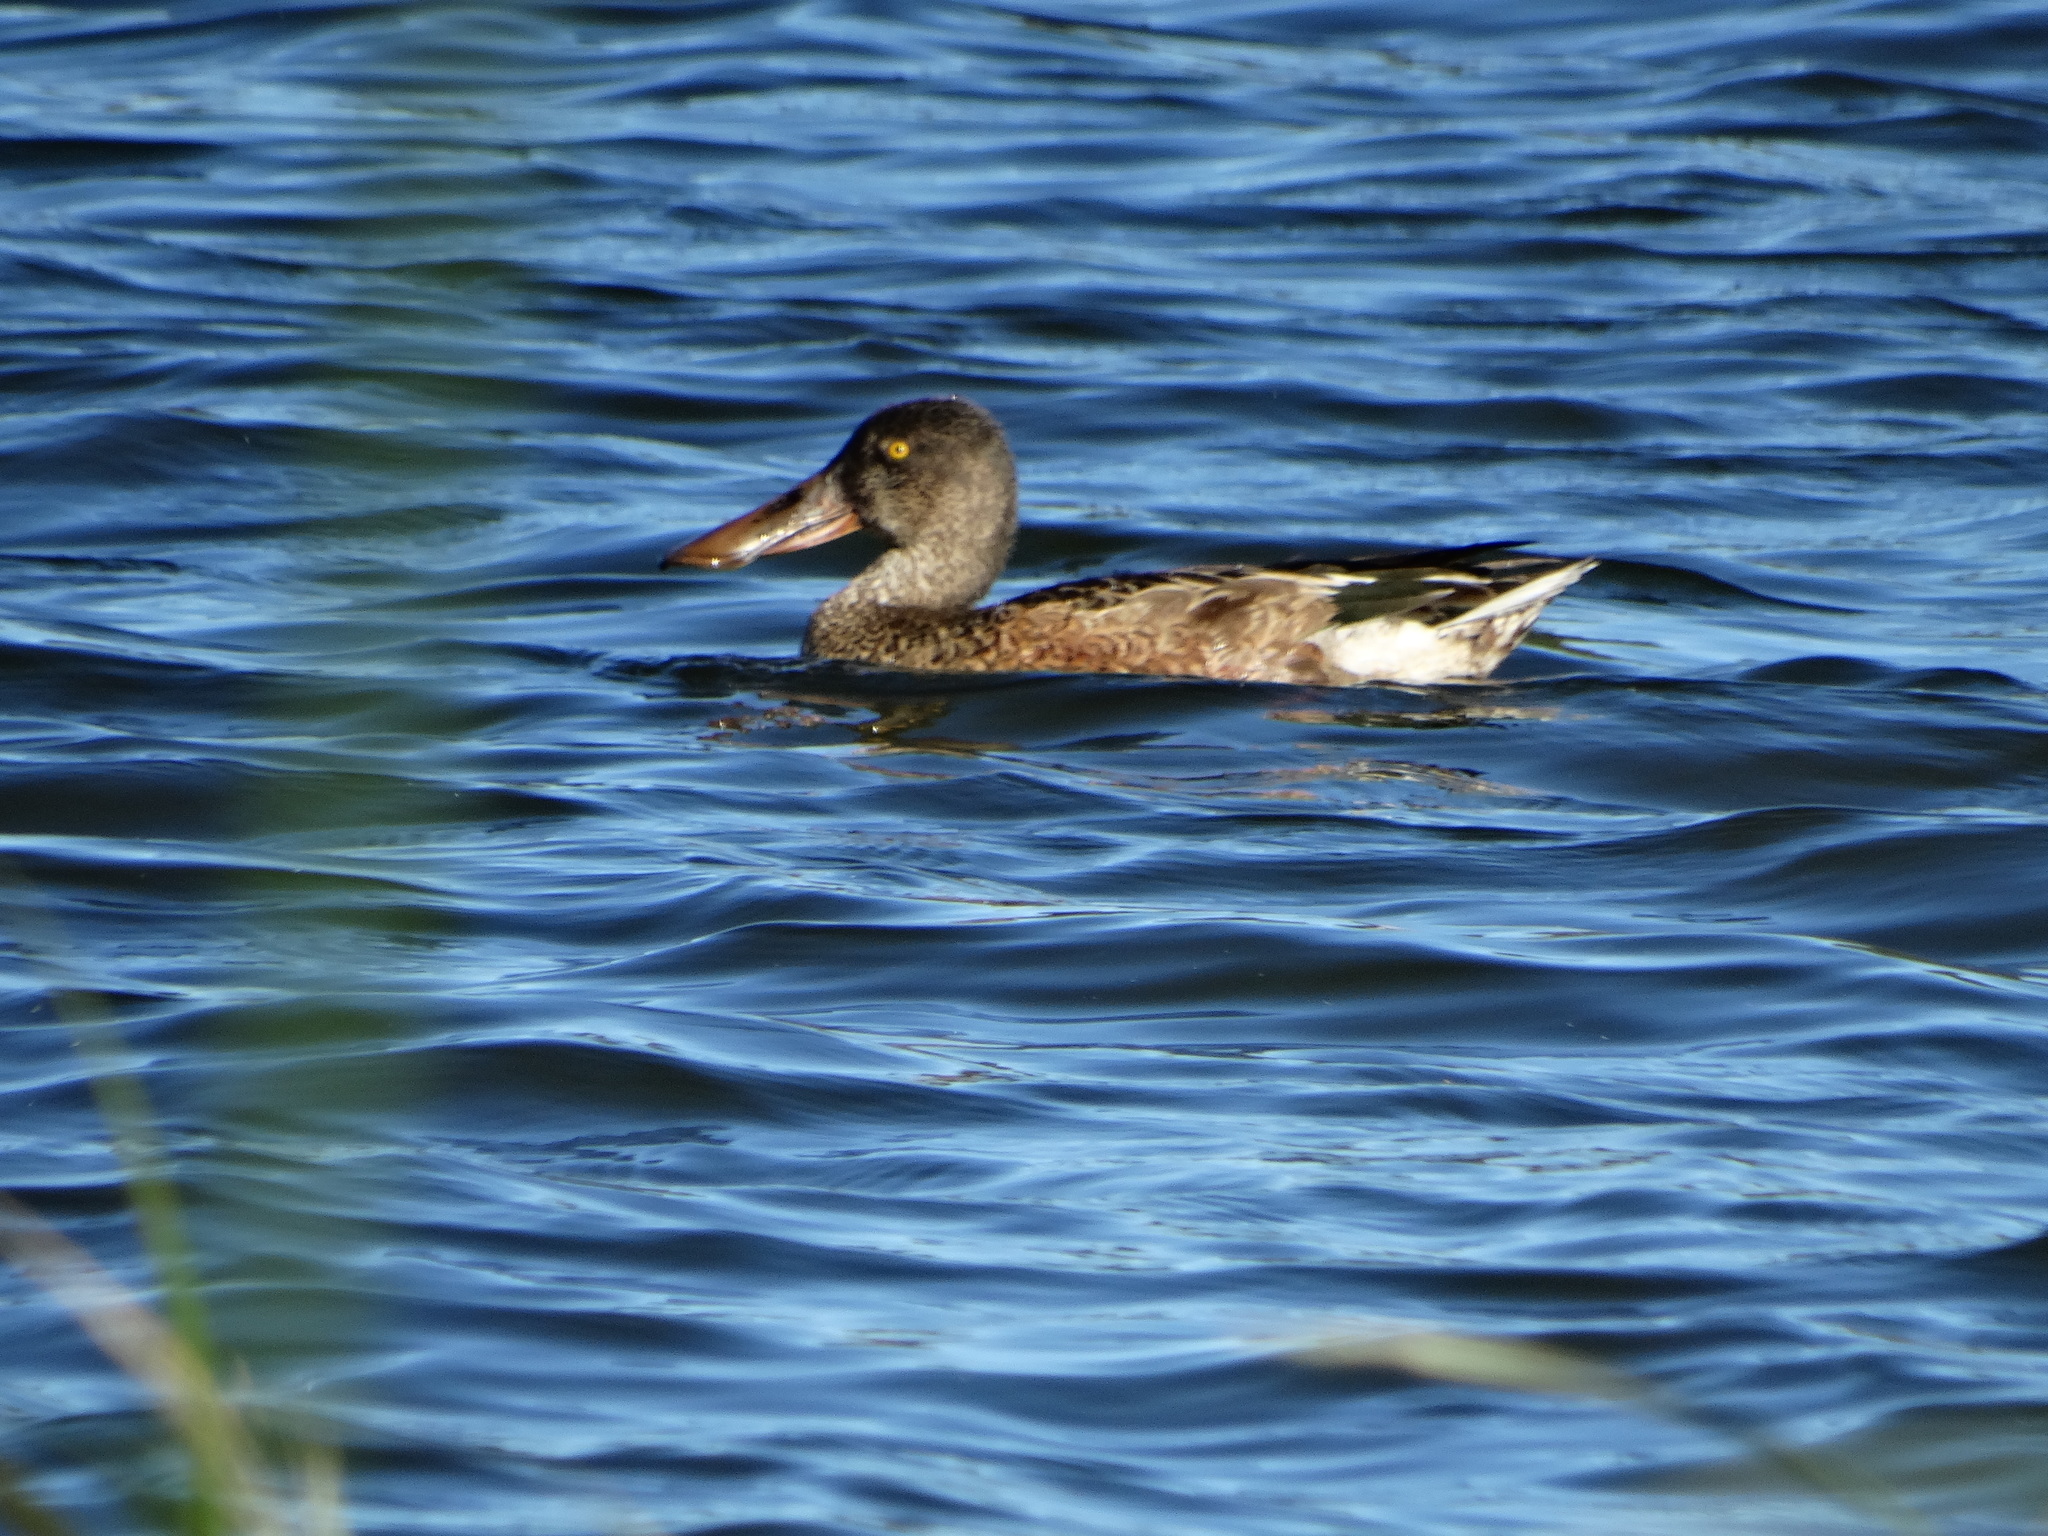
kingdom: Animalia
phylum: Chordata
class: Aves
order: Anseriformes
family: Anatidae
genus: Spatula
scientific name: Spatula clypeata
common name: Northern shoveler
